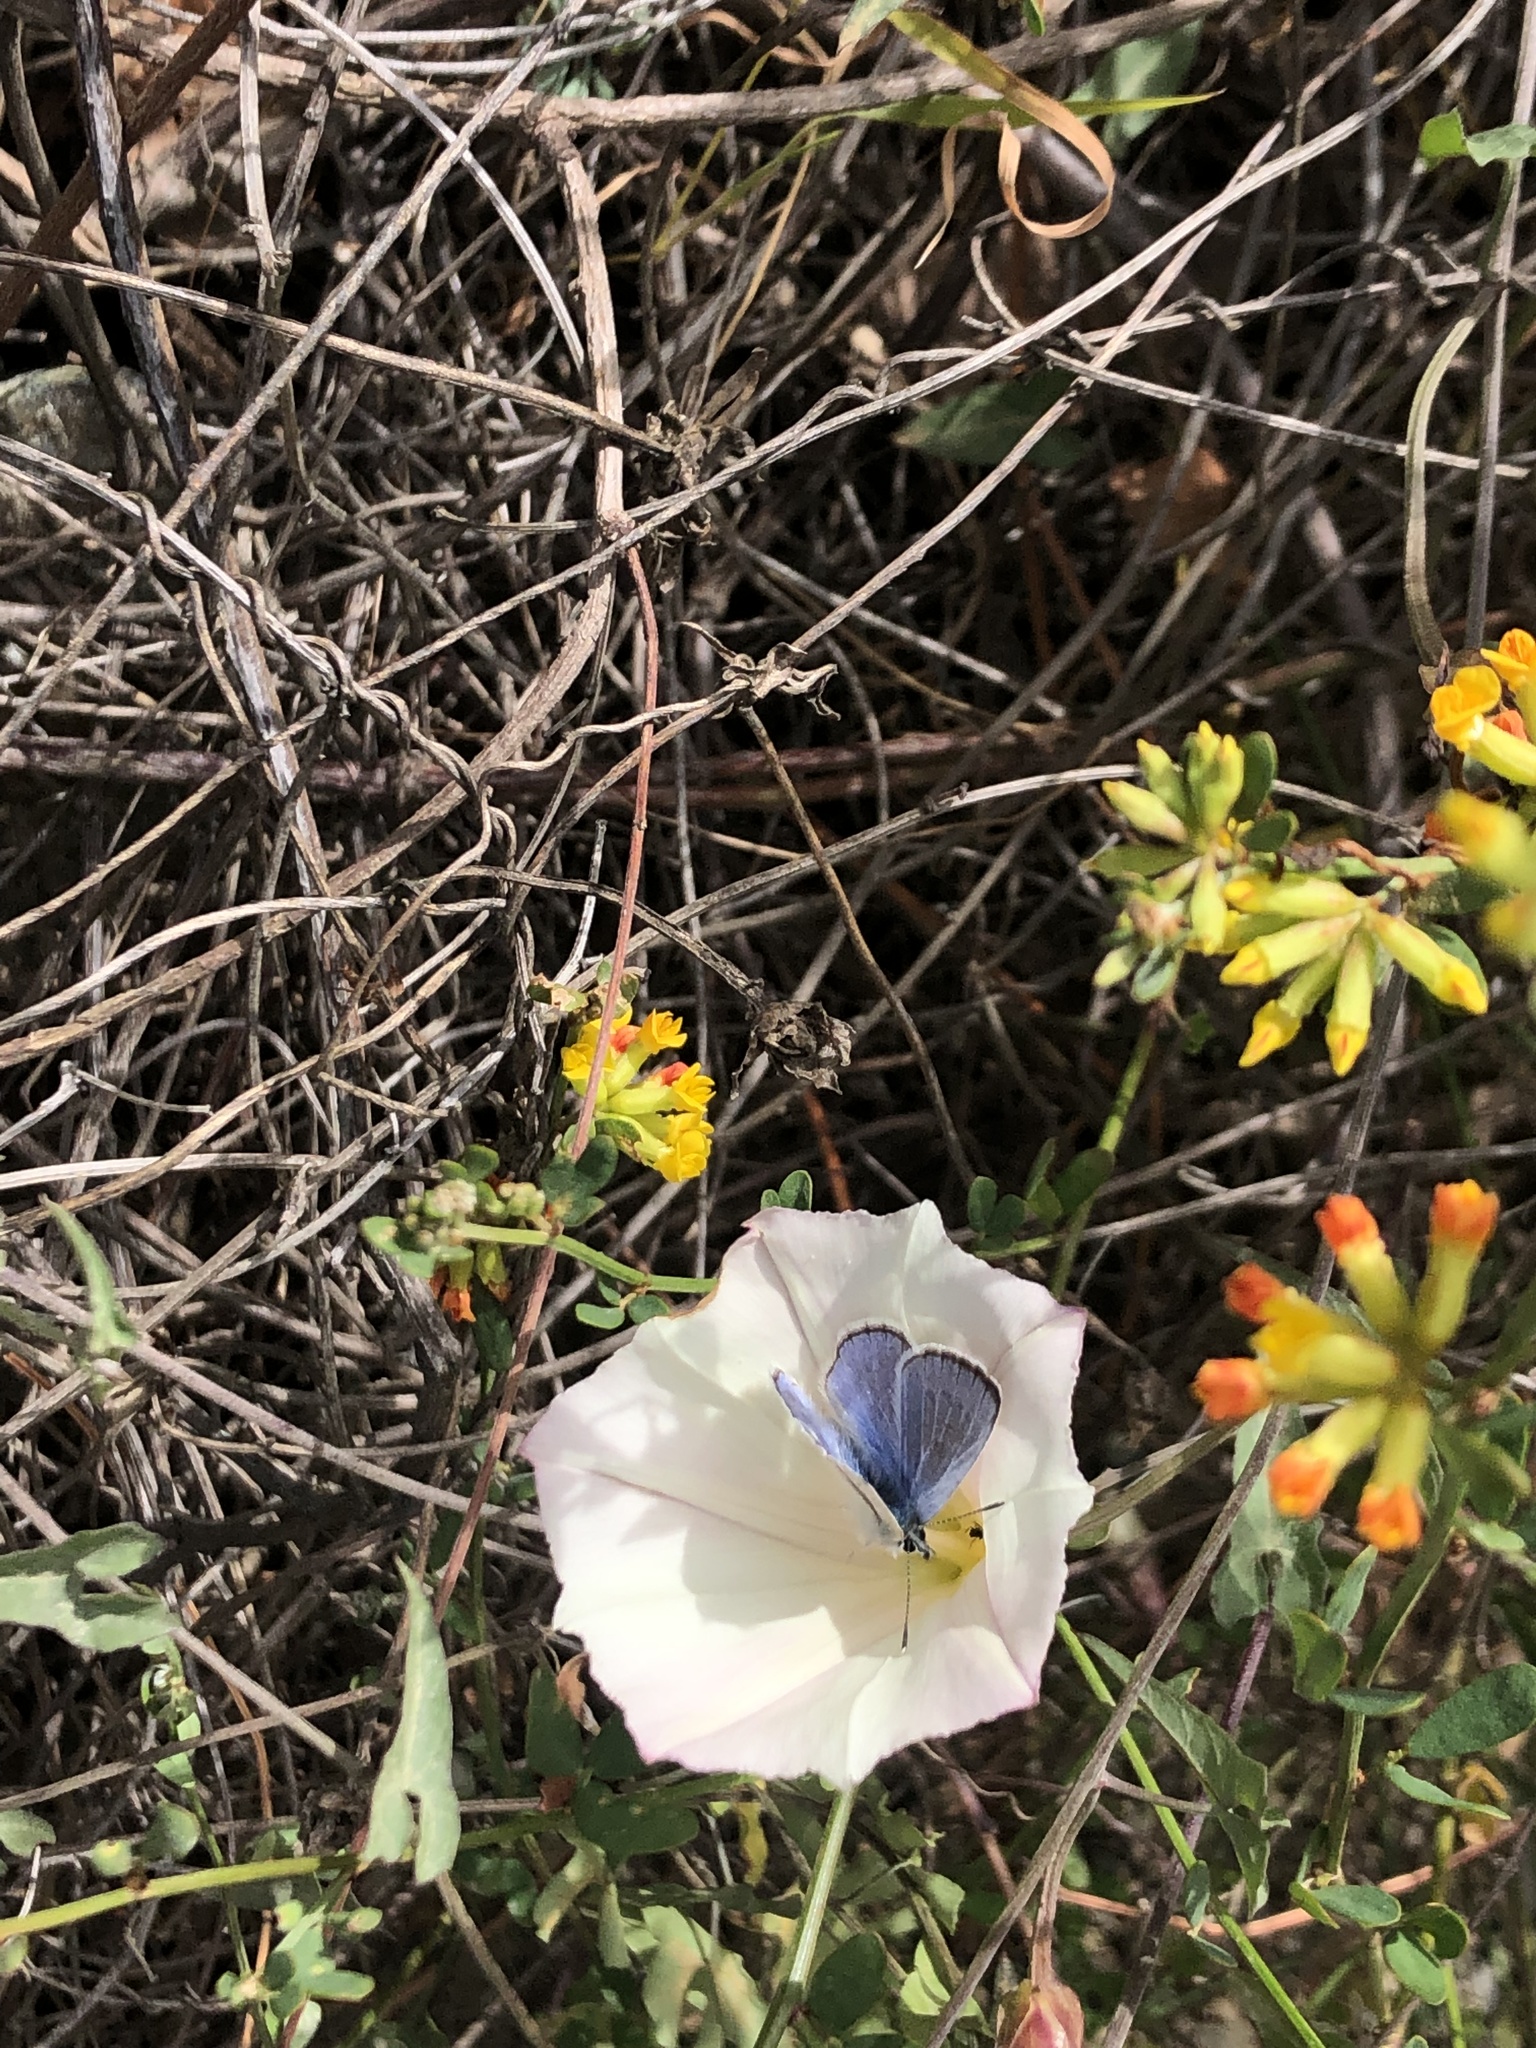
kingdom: Animalia
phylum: Arthropoda
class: Insecta
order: Lepidoptera
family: Lycaenidae
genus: Glaucopsyche
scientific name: Glaucopsyche lygdamus
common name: Silvery blue
